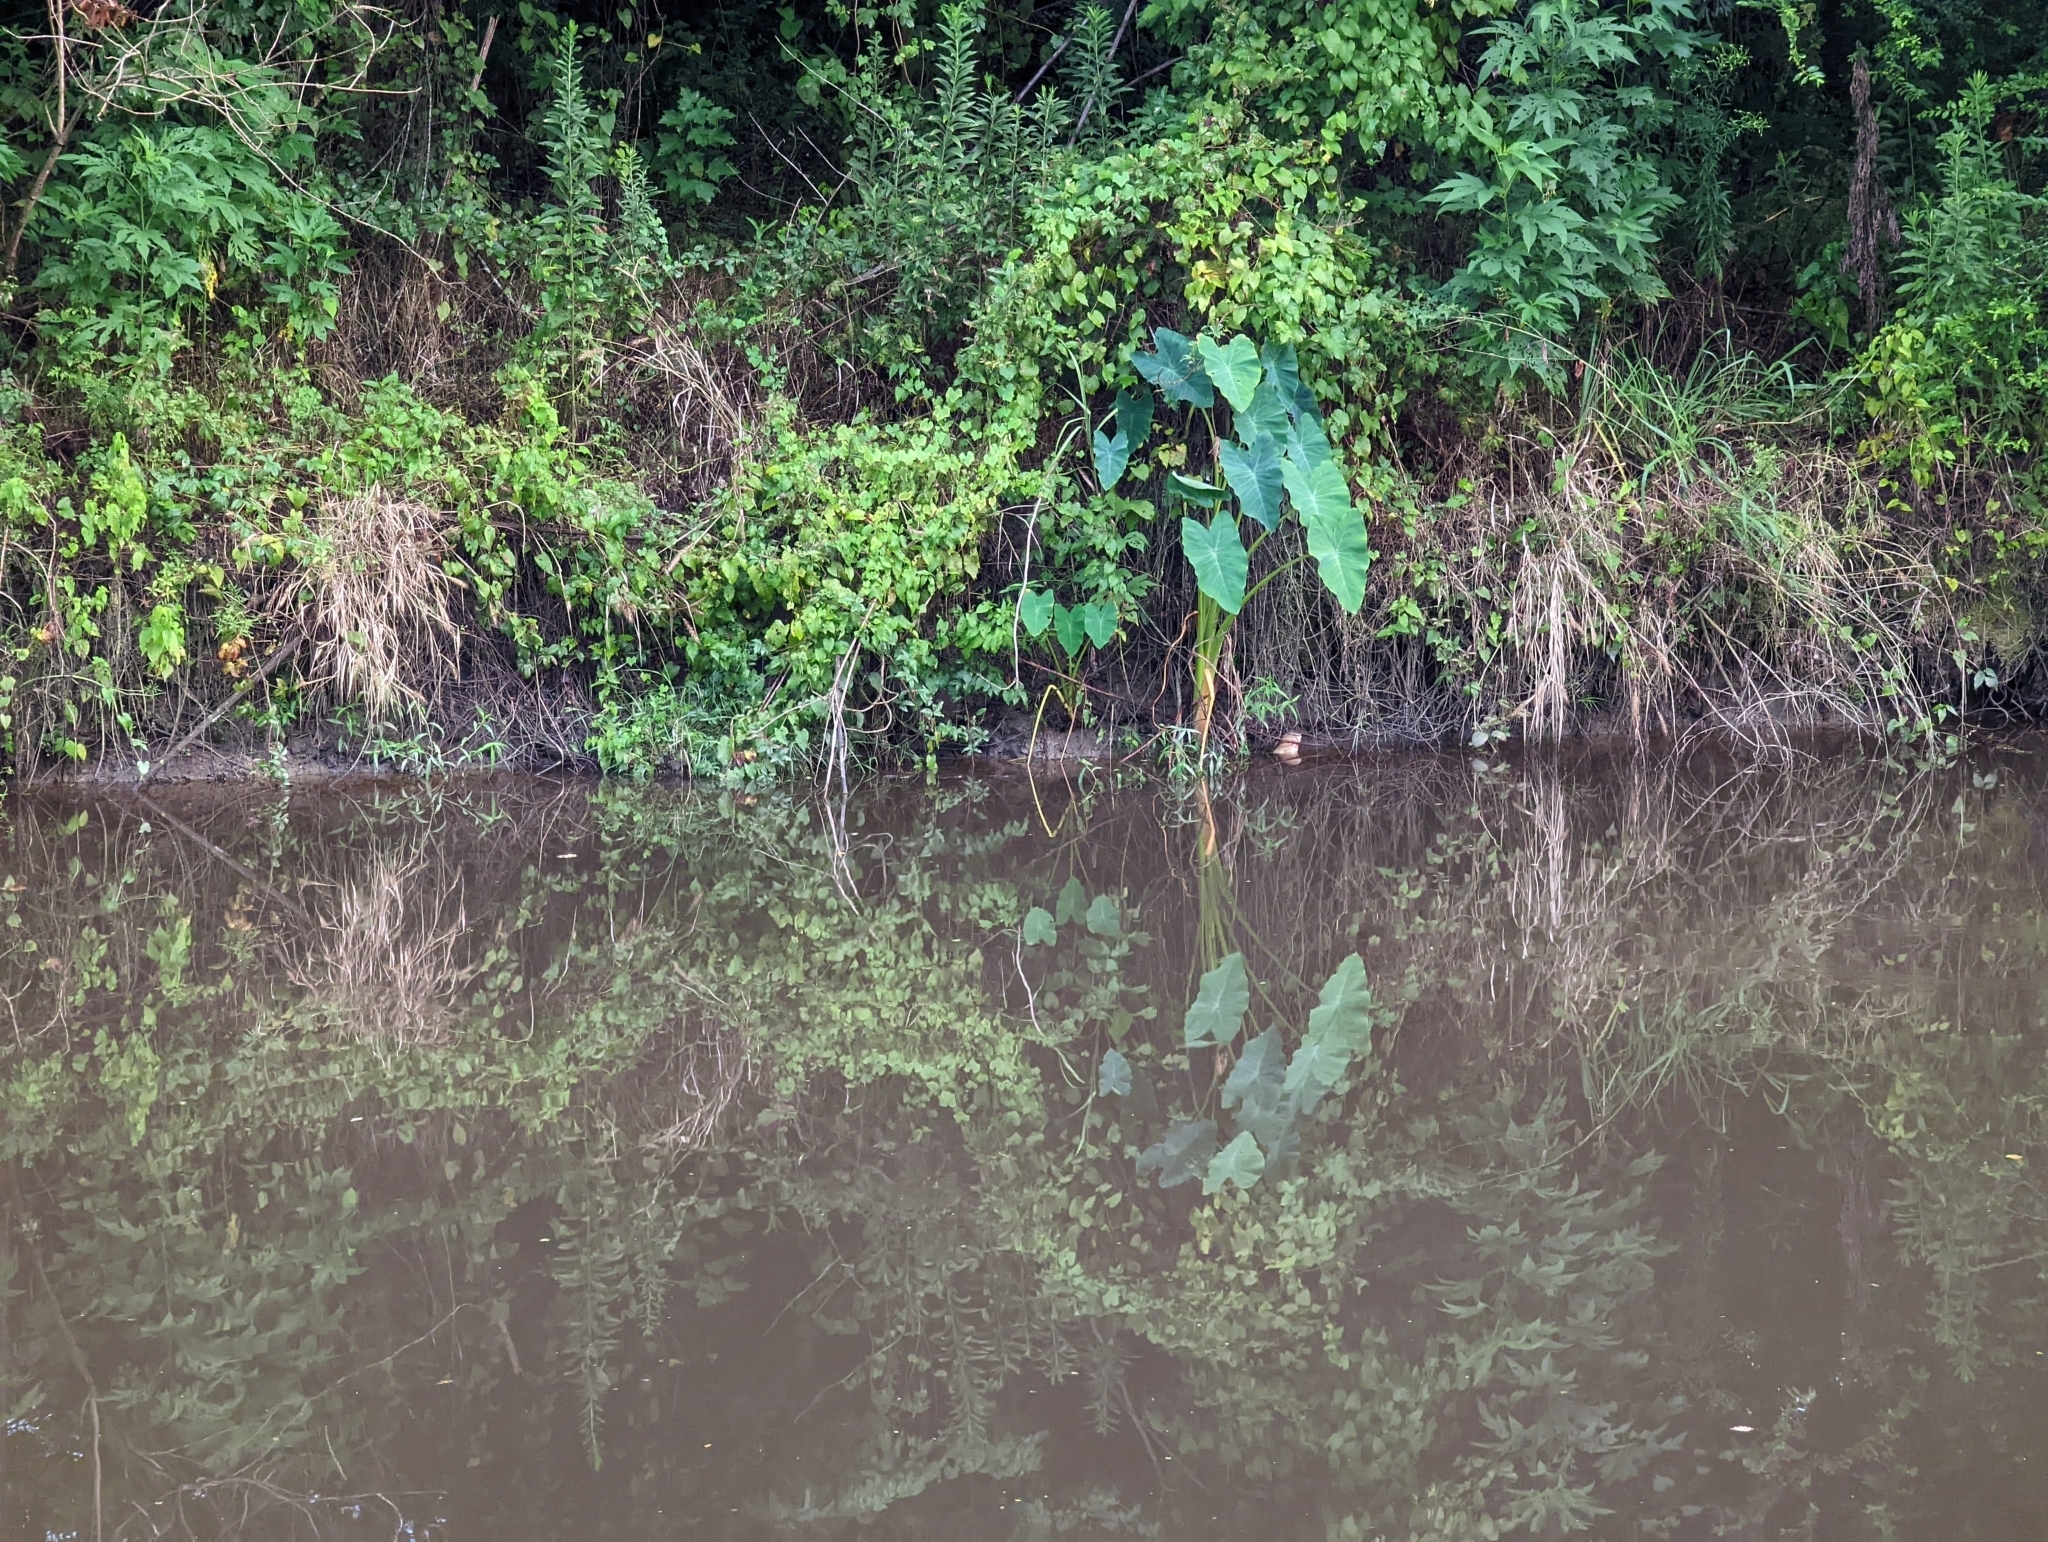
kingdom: Plantae
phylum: Tracheophyta
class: Liliopsida
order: Alismatales
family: Araceae
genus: Colocasia
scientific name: Colocasia esculenta
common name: Taro
